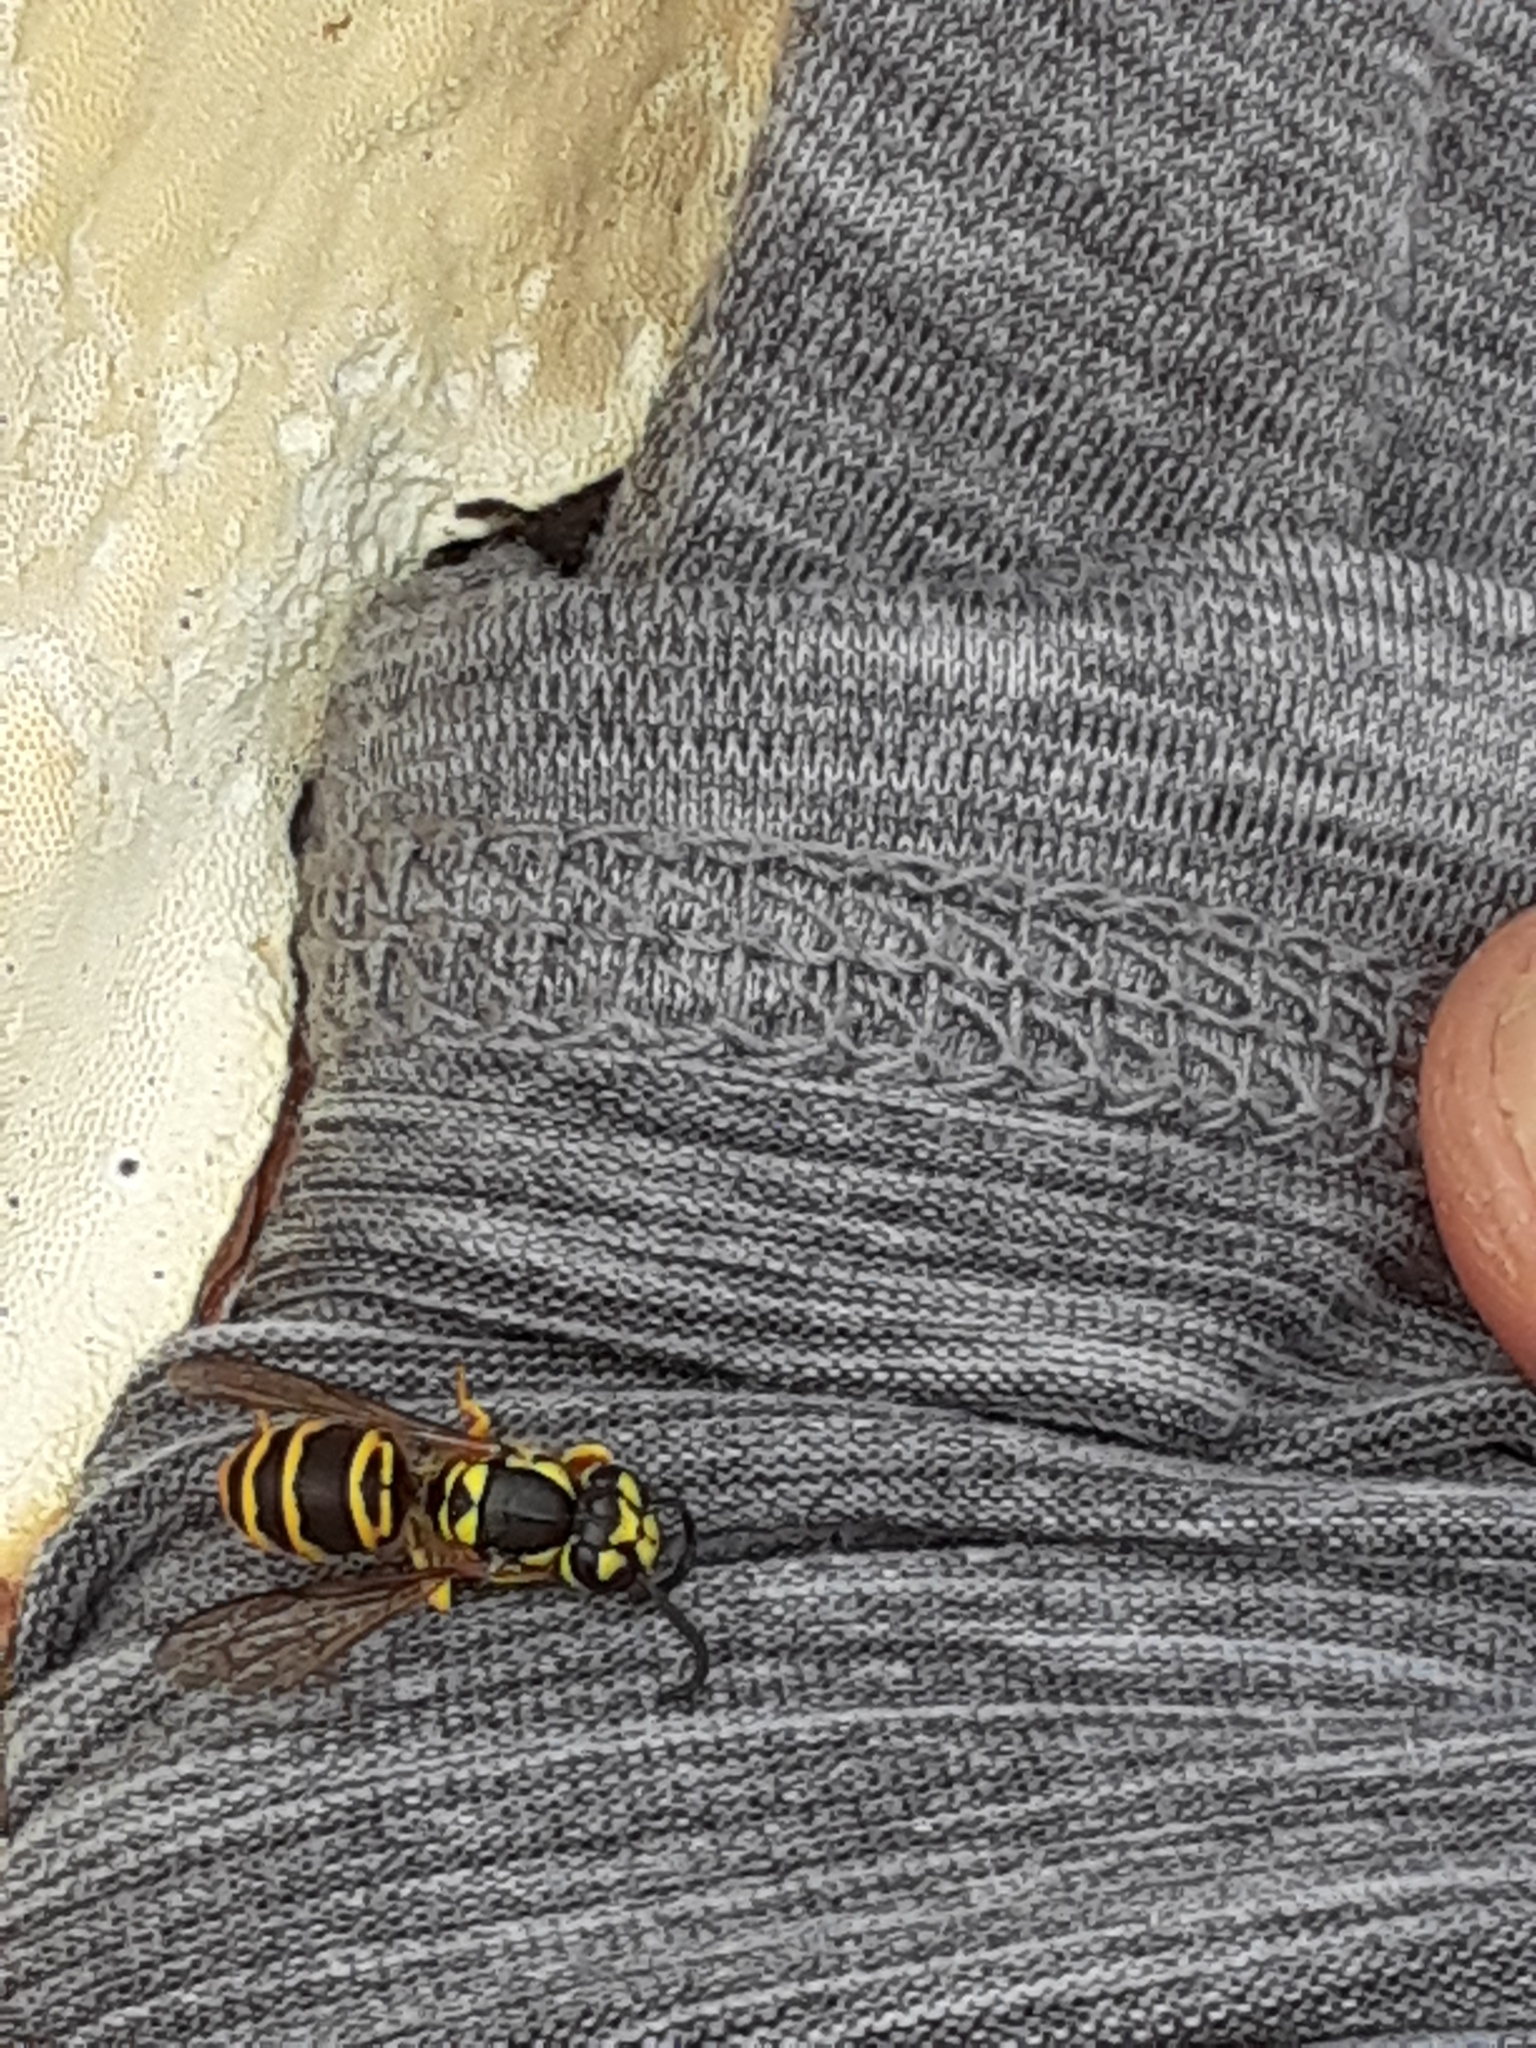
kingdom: Animalia
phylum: Arthropoda
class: Insecta
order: Hymenoptera
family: Vespidae
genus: Vespula
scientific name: Vespula maculifrons
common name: Eastern yellowjacket
